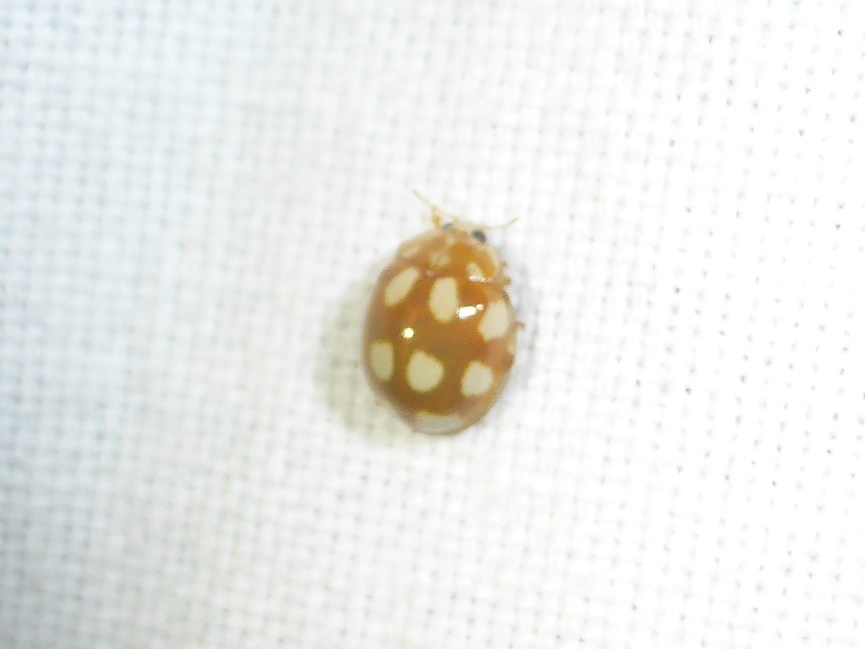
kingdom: Animalia
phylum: Arthropoda
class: Insecta
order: Coleoptera
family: Coccinellidae
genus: Calvia
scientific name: Calvia decemguttata
